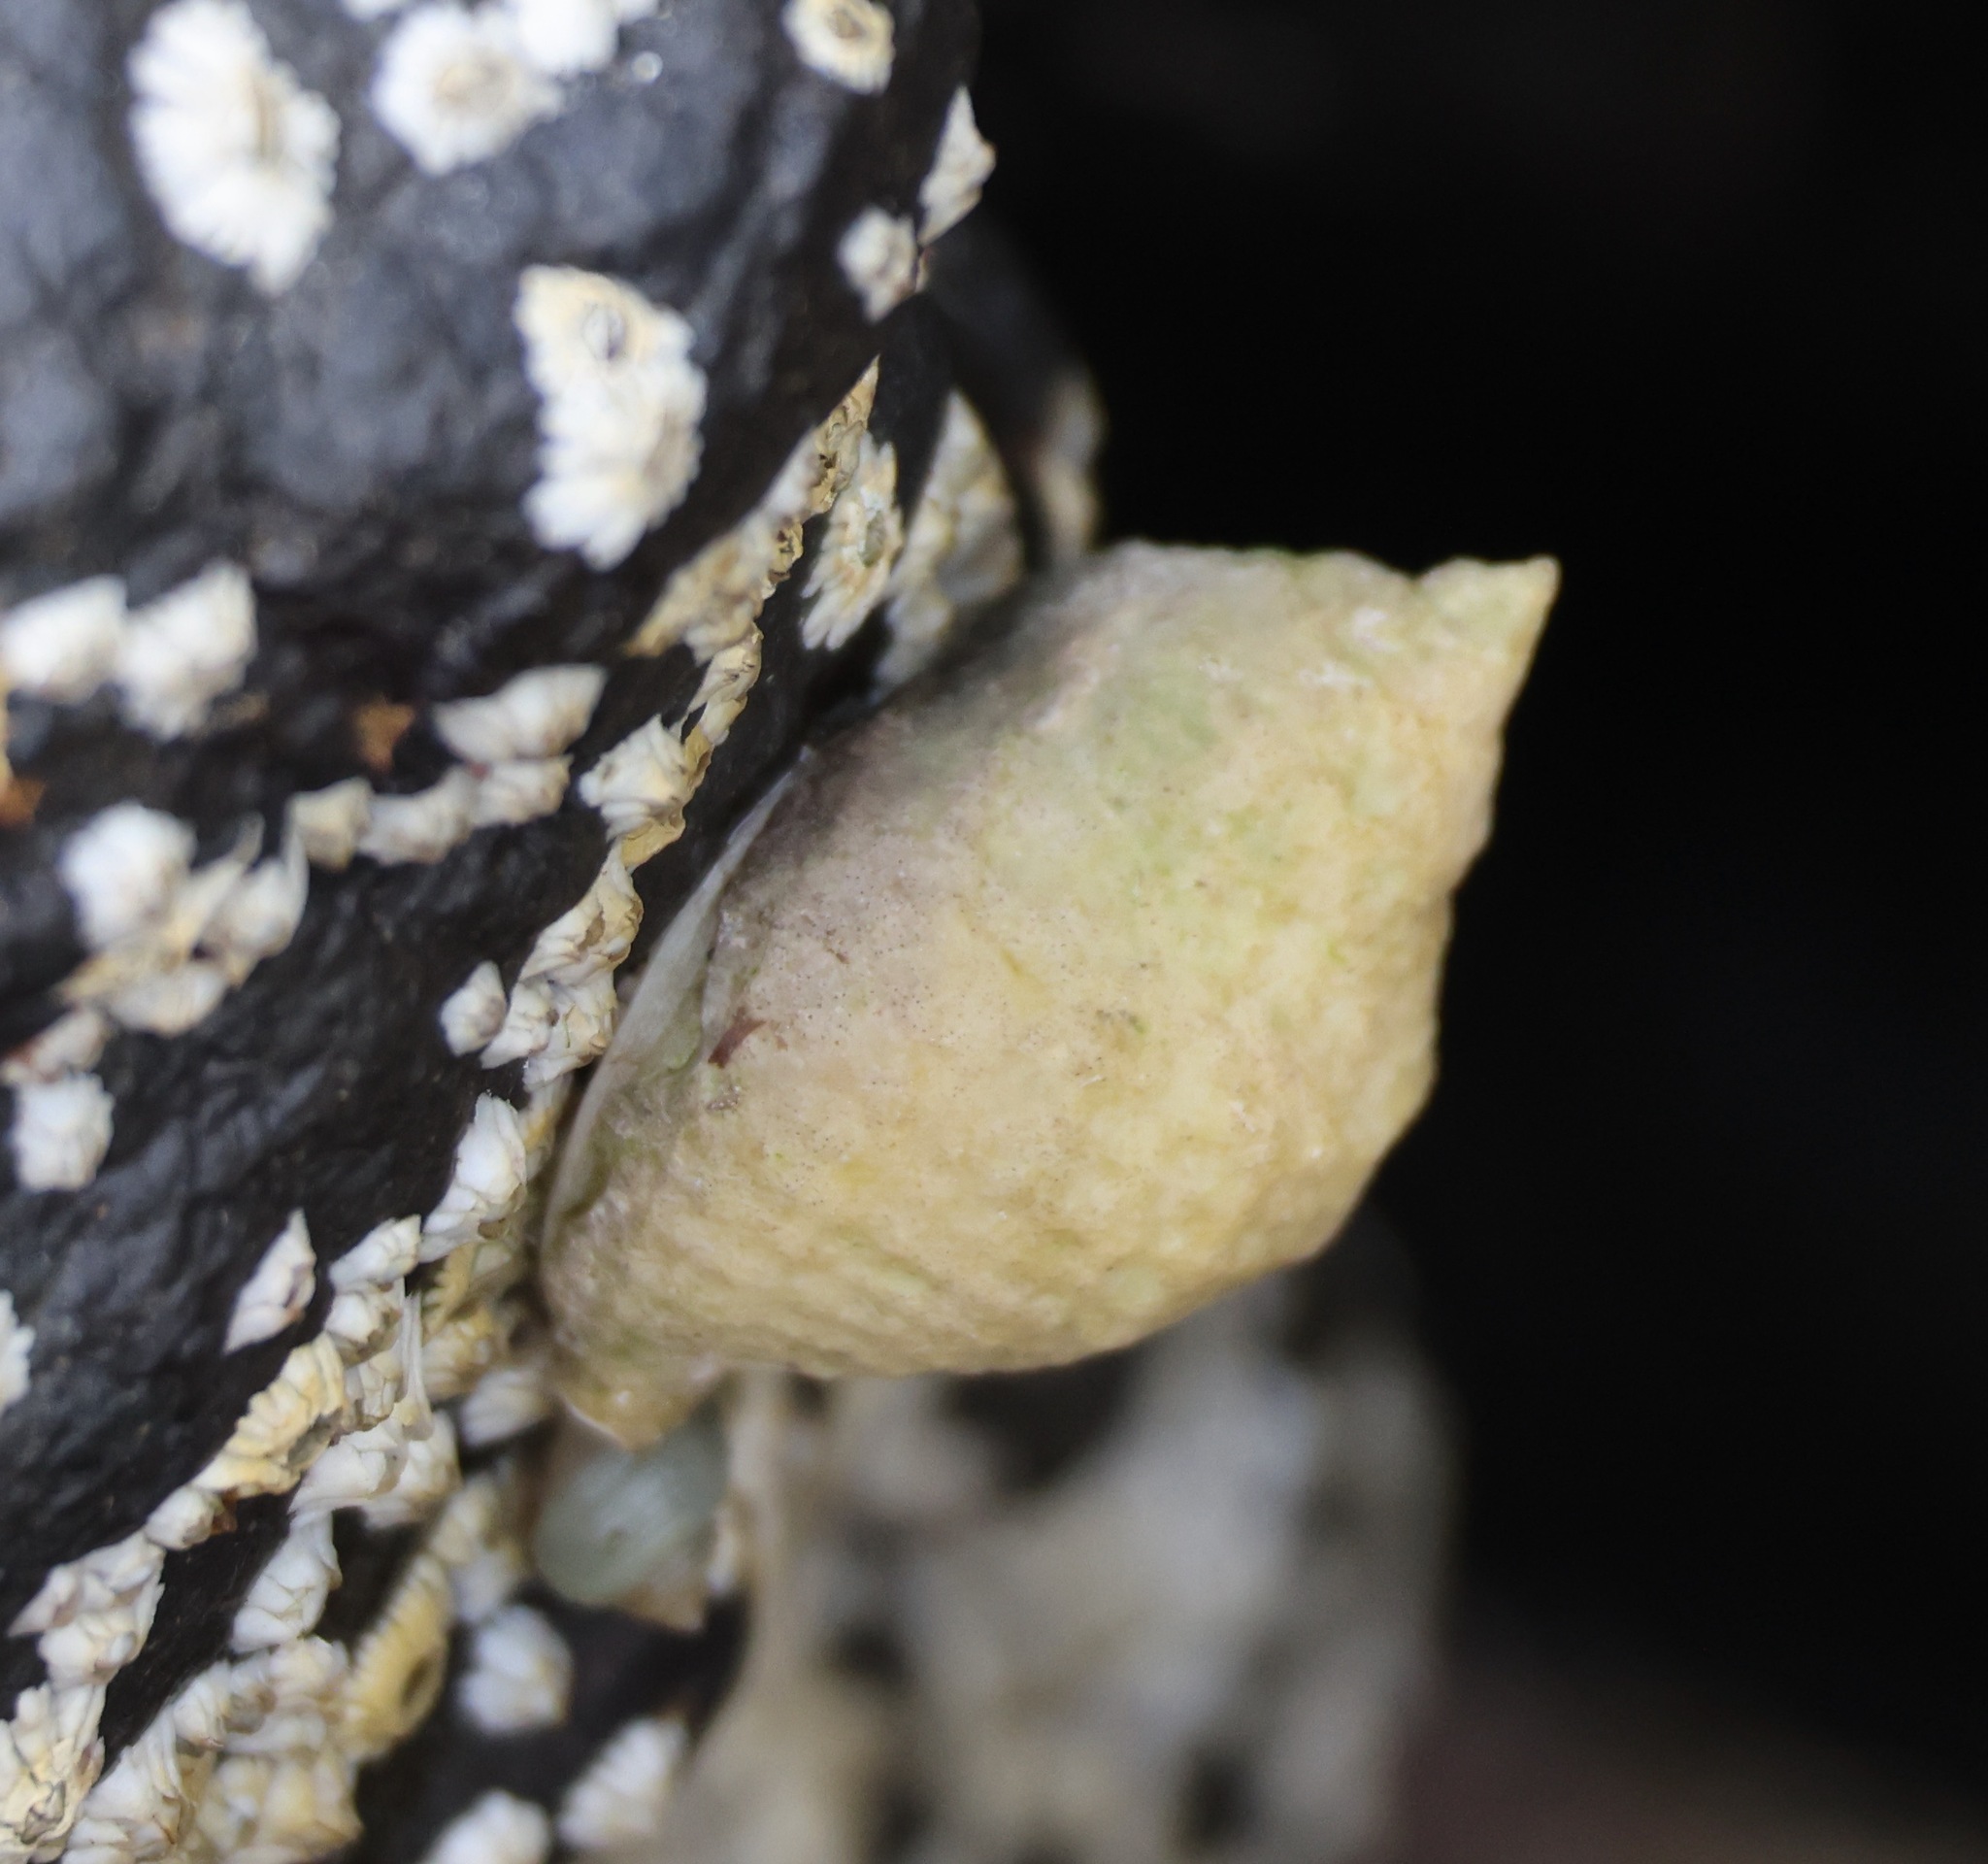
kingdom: Animalia
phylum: Mollusca
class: Gastropoda
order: Neogastropoda
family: Muricidae
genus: Nucella
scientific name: Nucella lapillus
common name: Dog whelk
